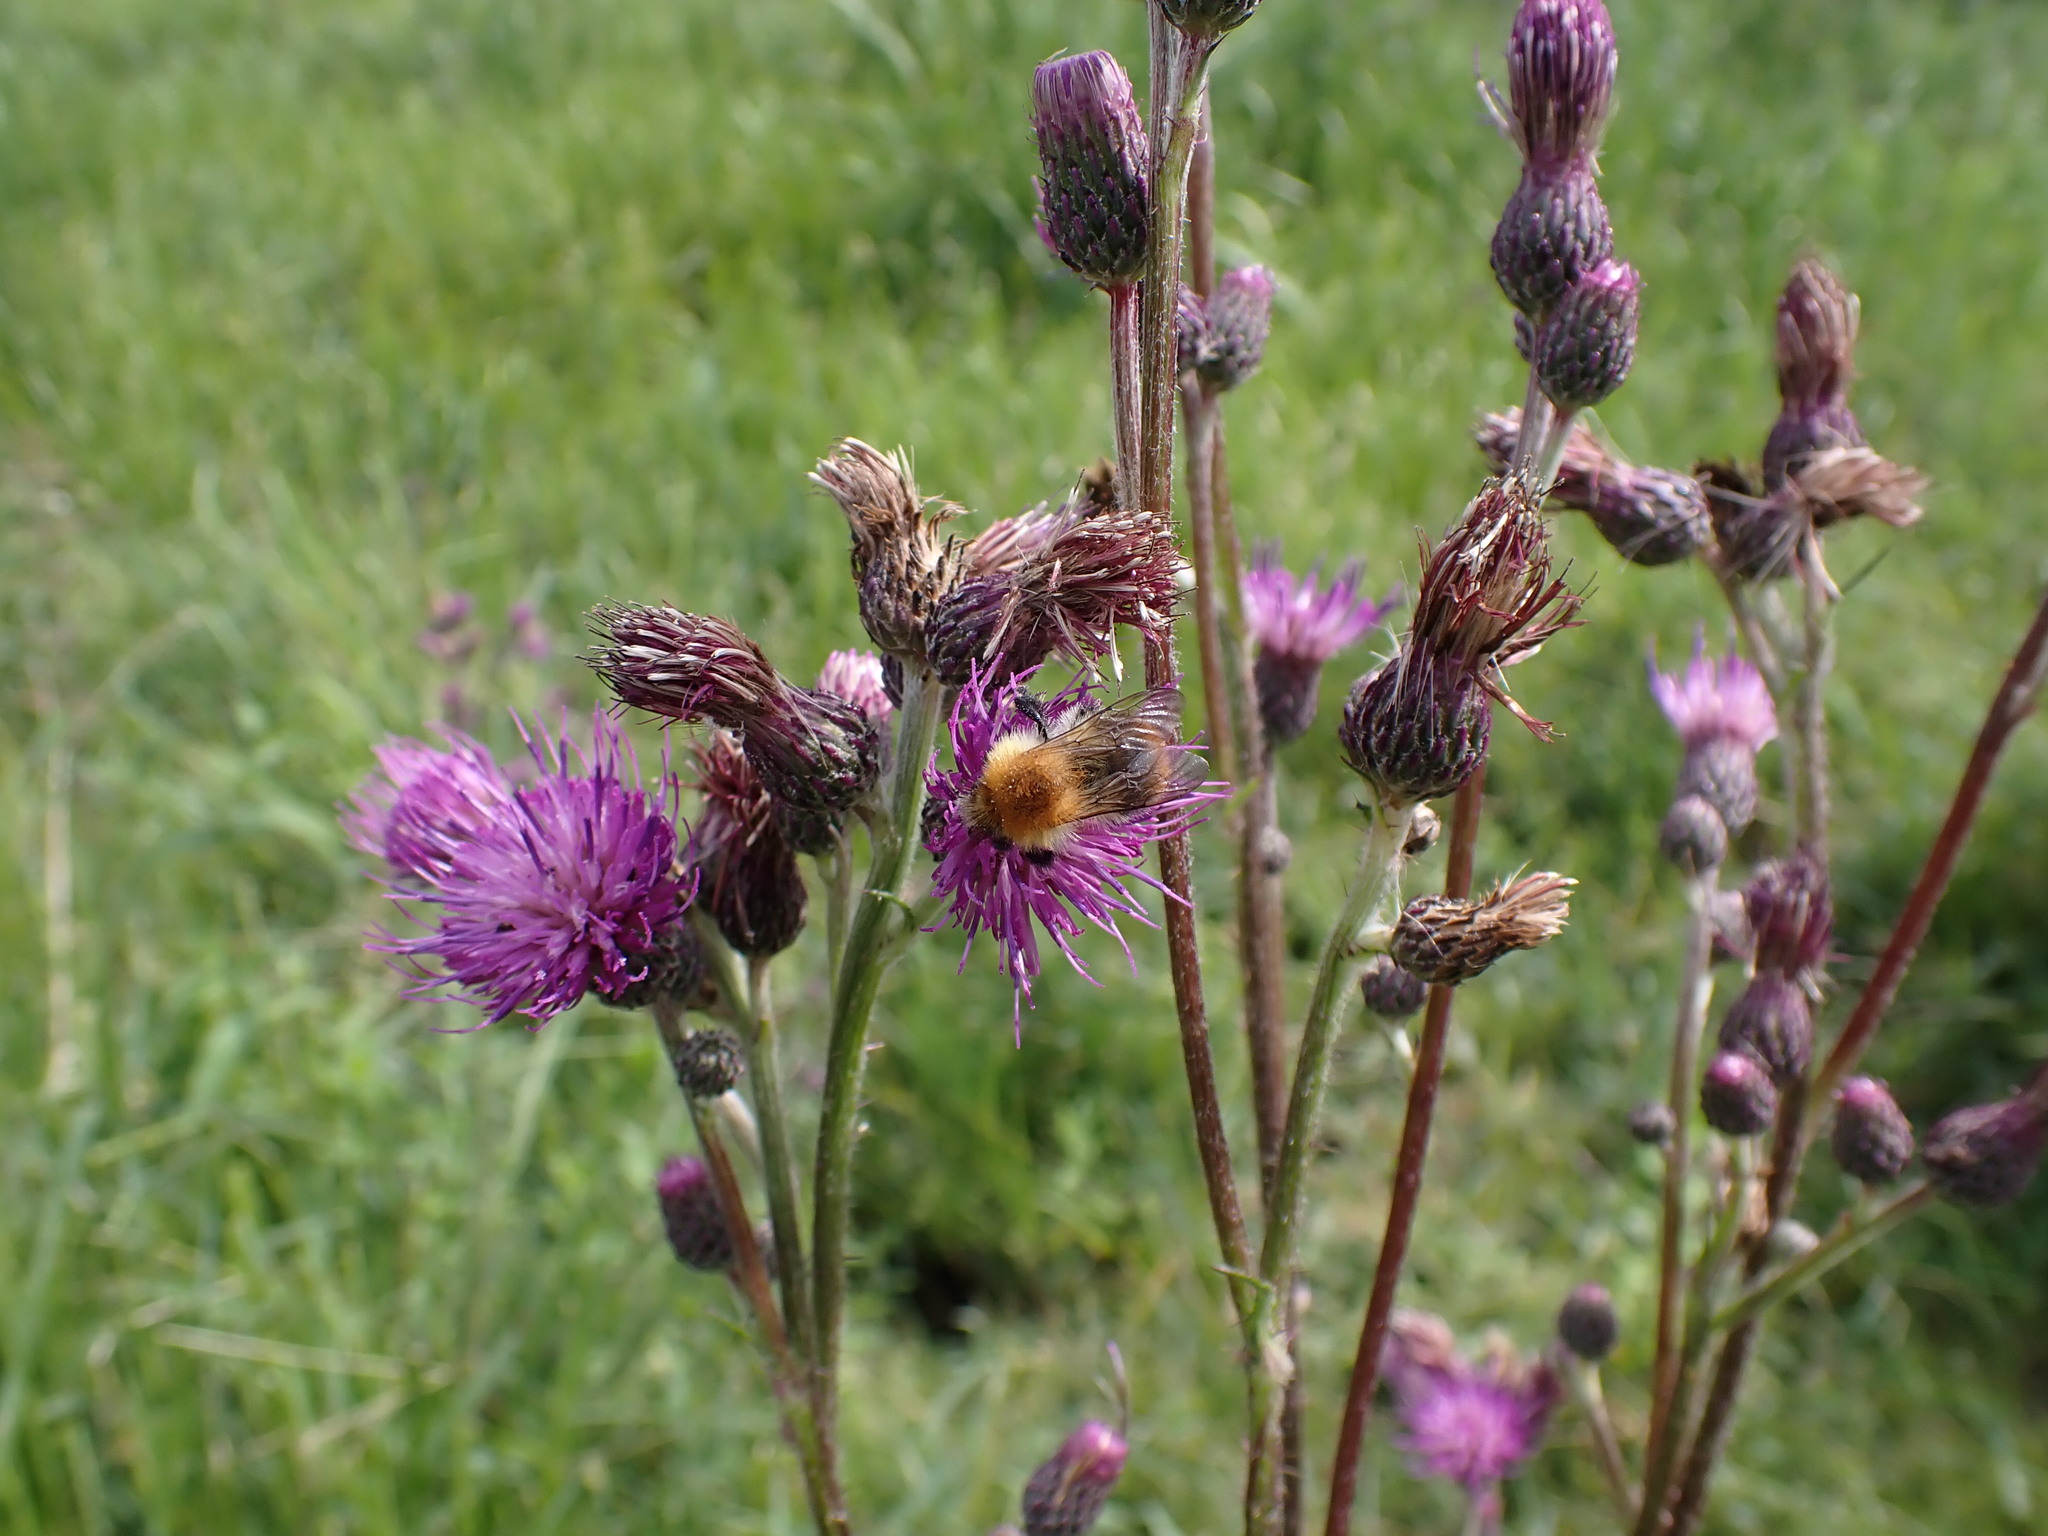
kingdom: Animalia
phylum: Arthropoda
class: Insecta
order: Hymenoptera
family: Apidae
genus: Bombus
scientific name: Bombus pascuorum
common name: Common carder bee
